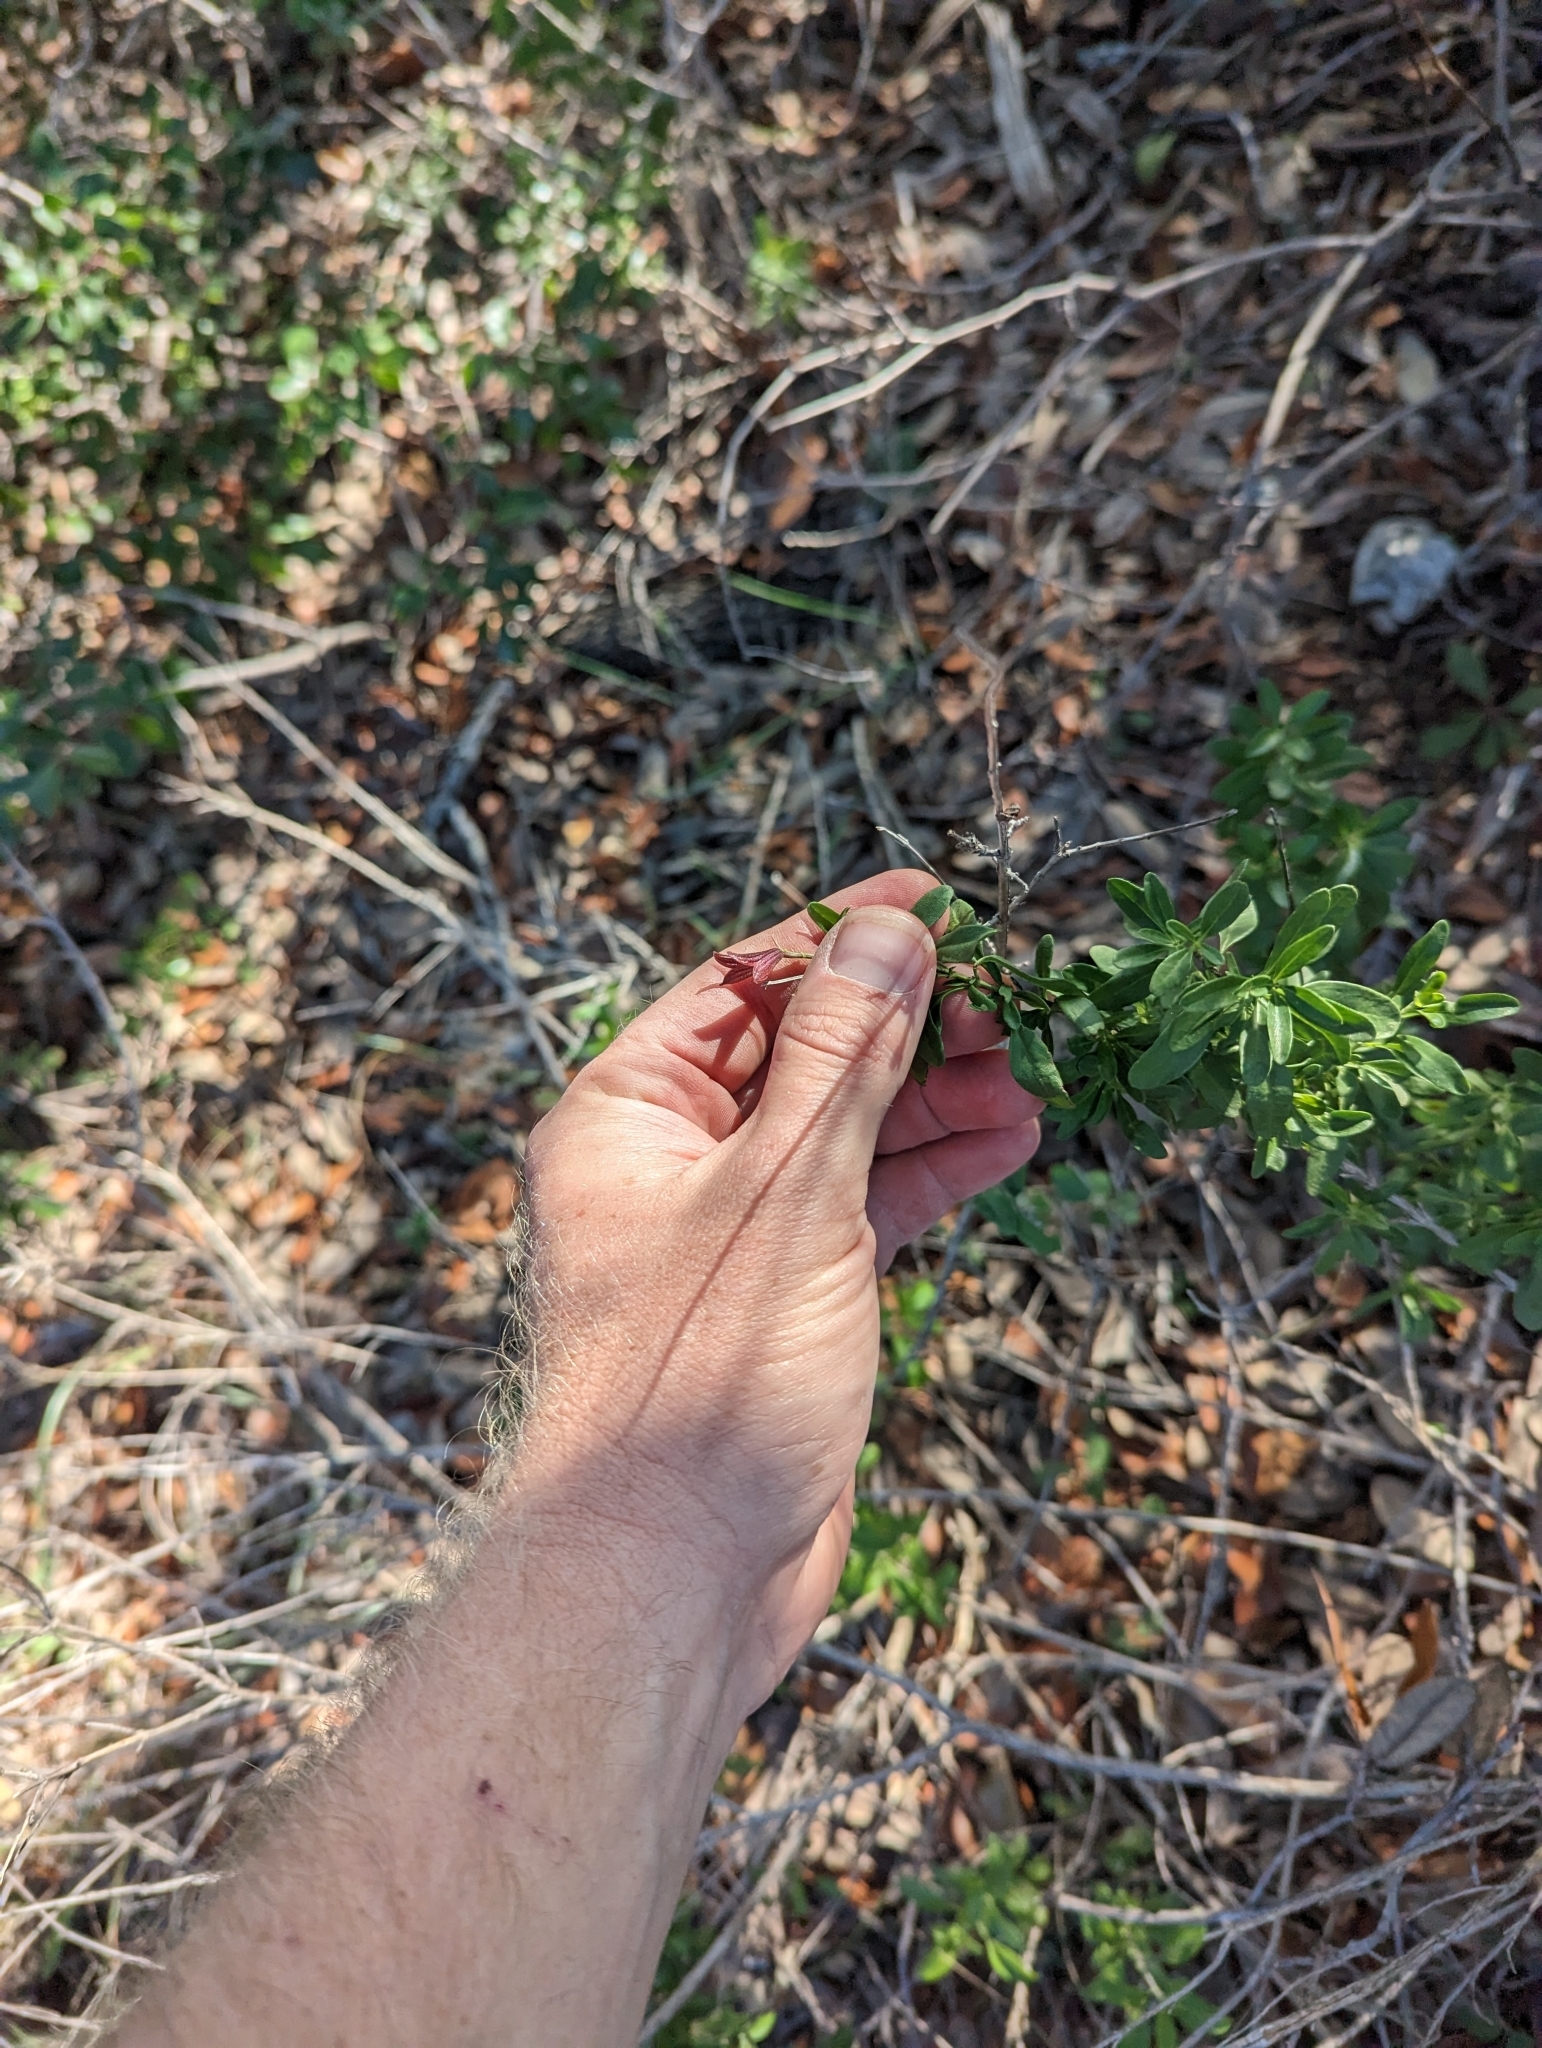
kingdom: Plantae
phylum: Tracheophyta
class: Magnoliopsida
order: Lamiales
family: Lamiaceae
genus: Salvia
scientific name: Salvia greggii
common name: Autumn sage
